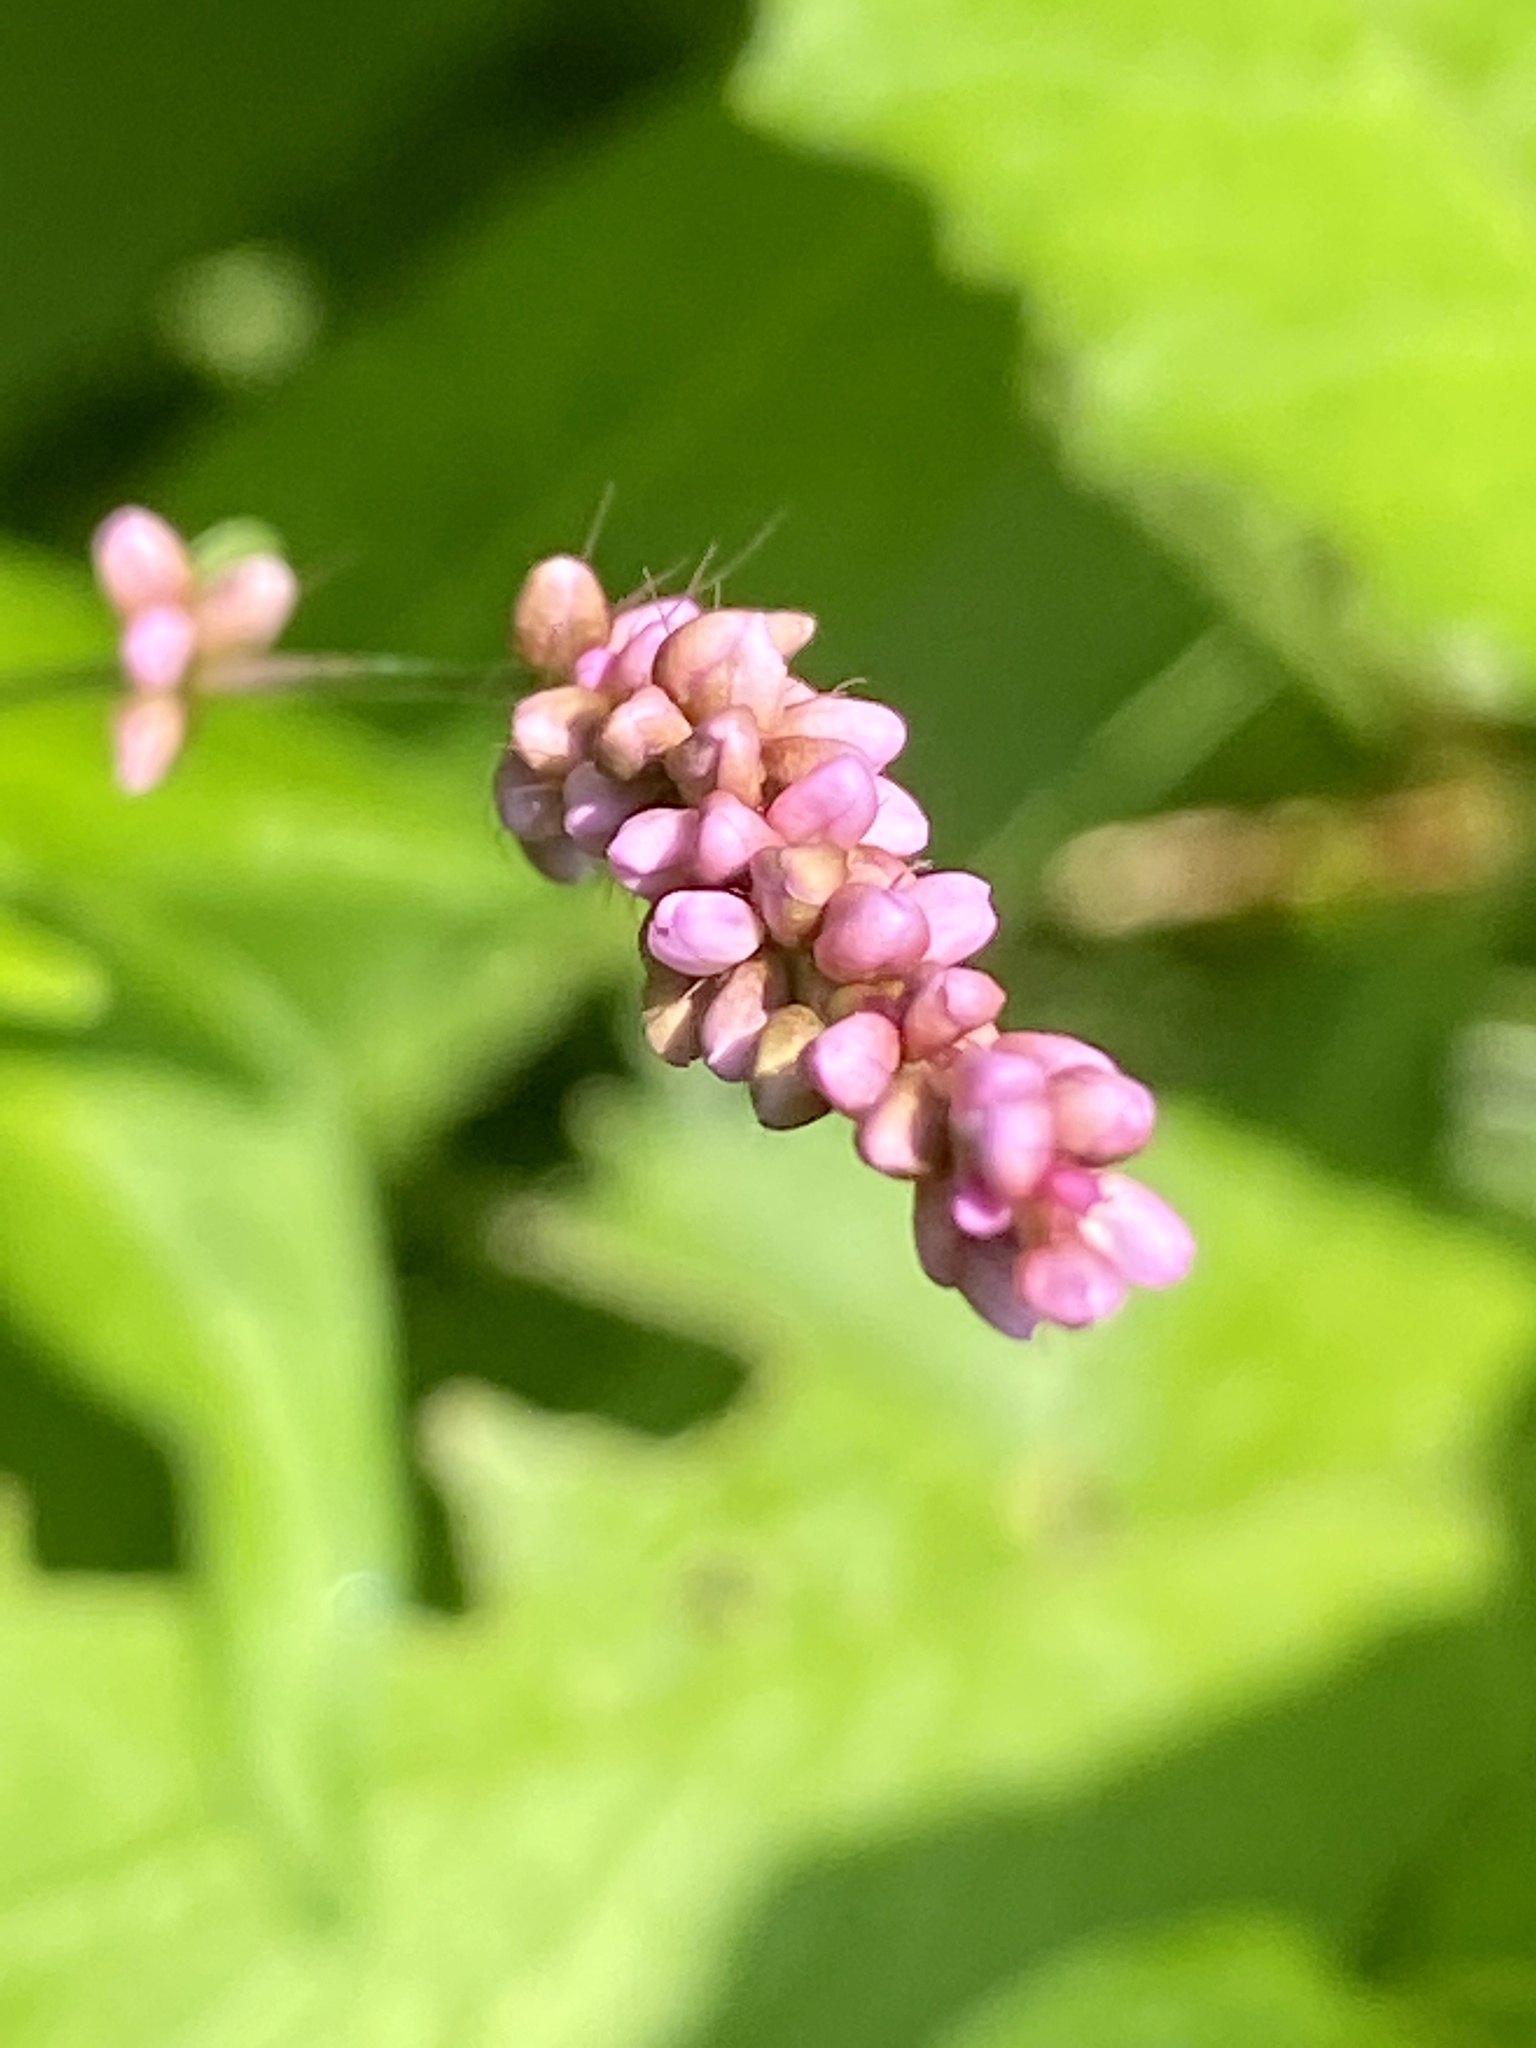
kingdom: Plantae
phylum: Tracheophyta
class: Magnoliopsida
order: Caryophyllales
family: Polygonaceae
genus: Persicaria
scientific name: Persicaria longiseta
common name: Bristly lady's-thumb
